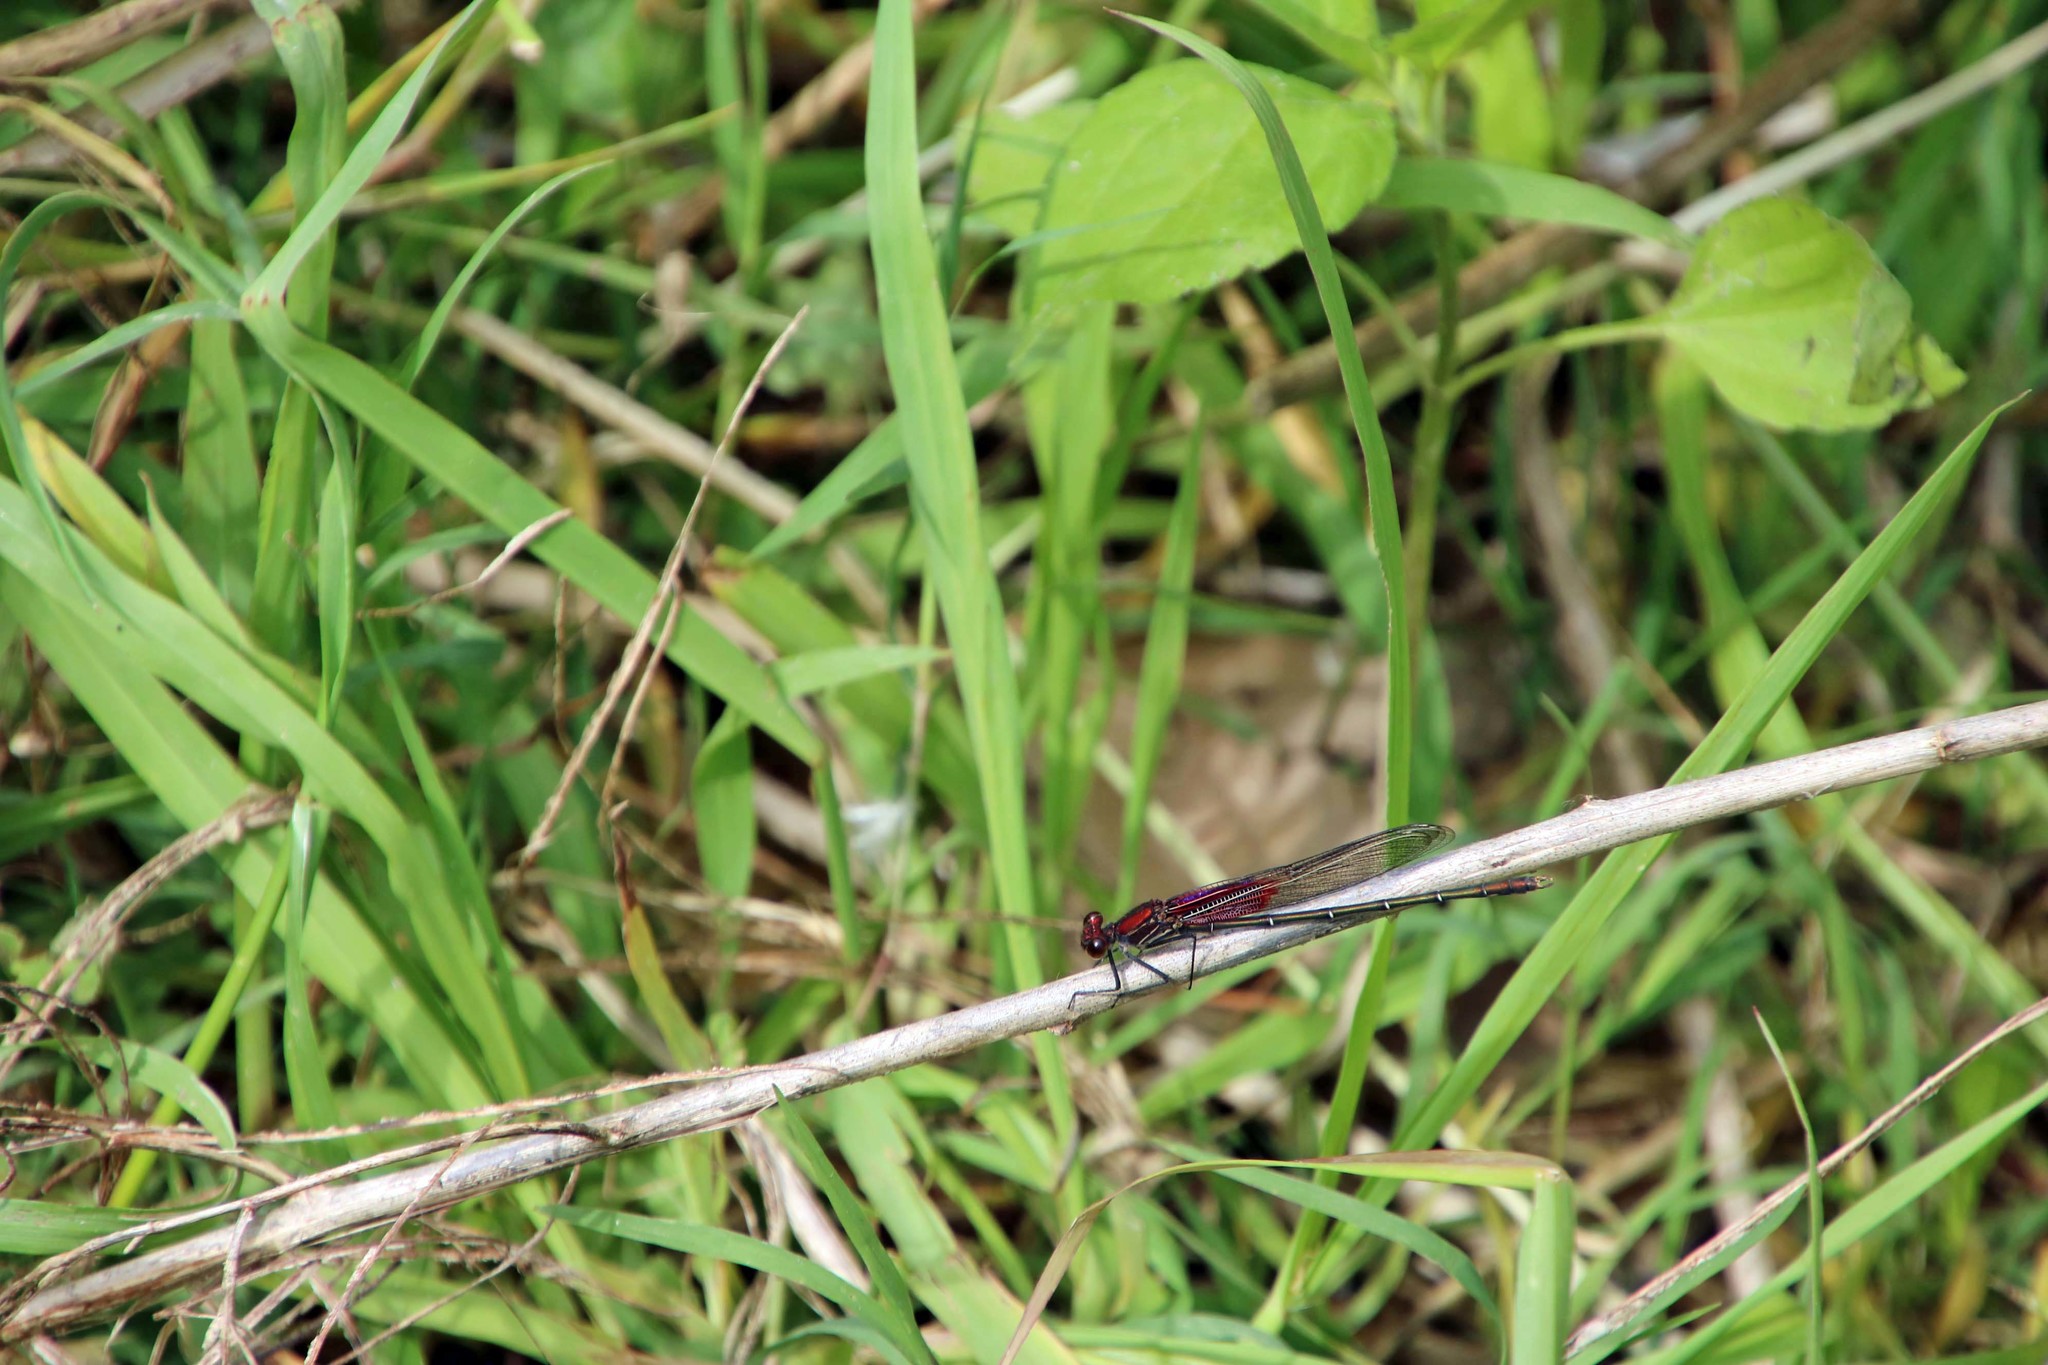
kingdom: Animalia
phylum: Arthropoda
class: Insecta
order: Odonata
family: Calopterygidae
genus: Hetaerina
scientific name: Hetaerina americana
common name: American rubyspot
